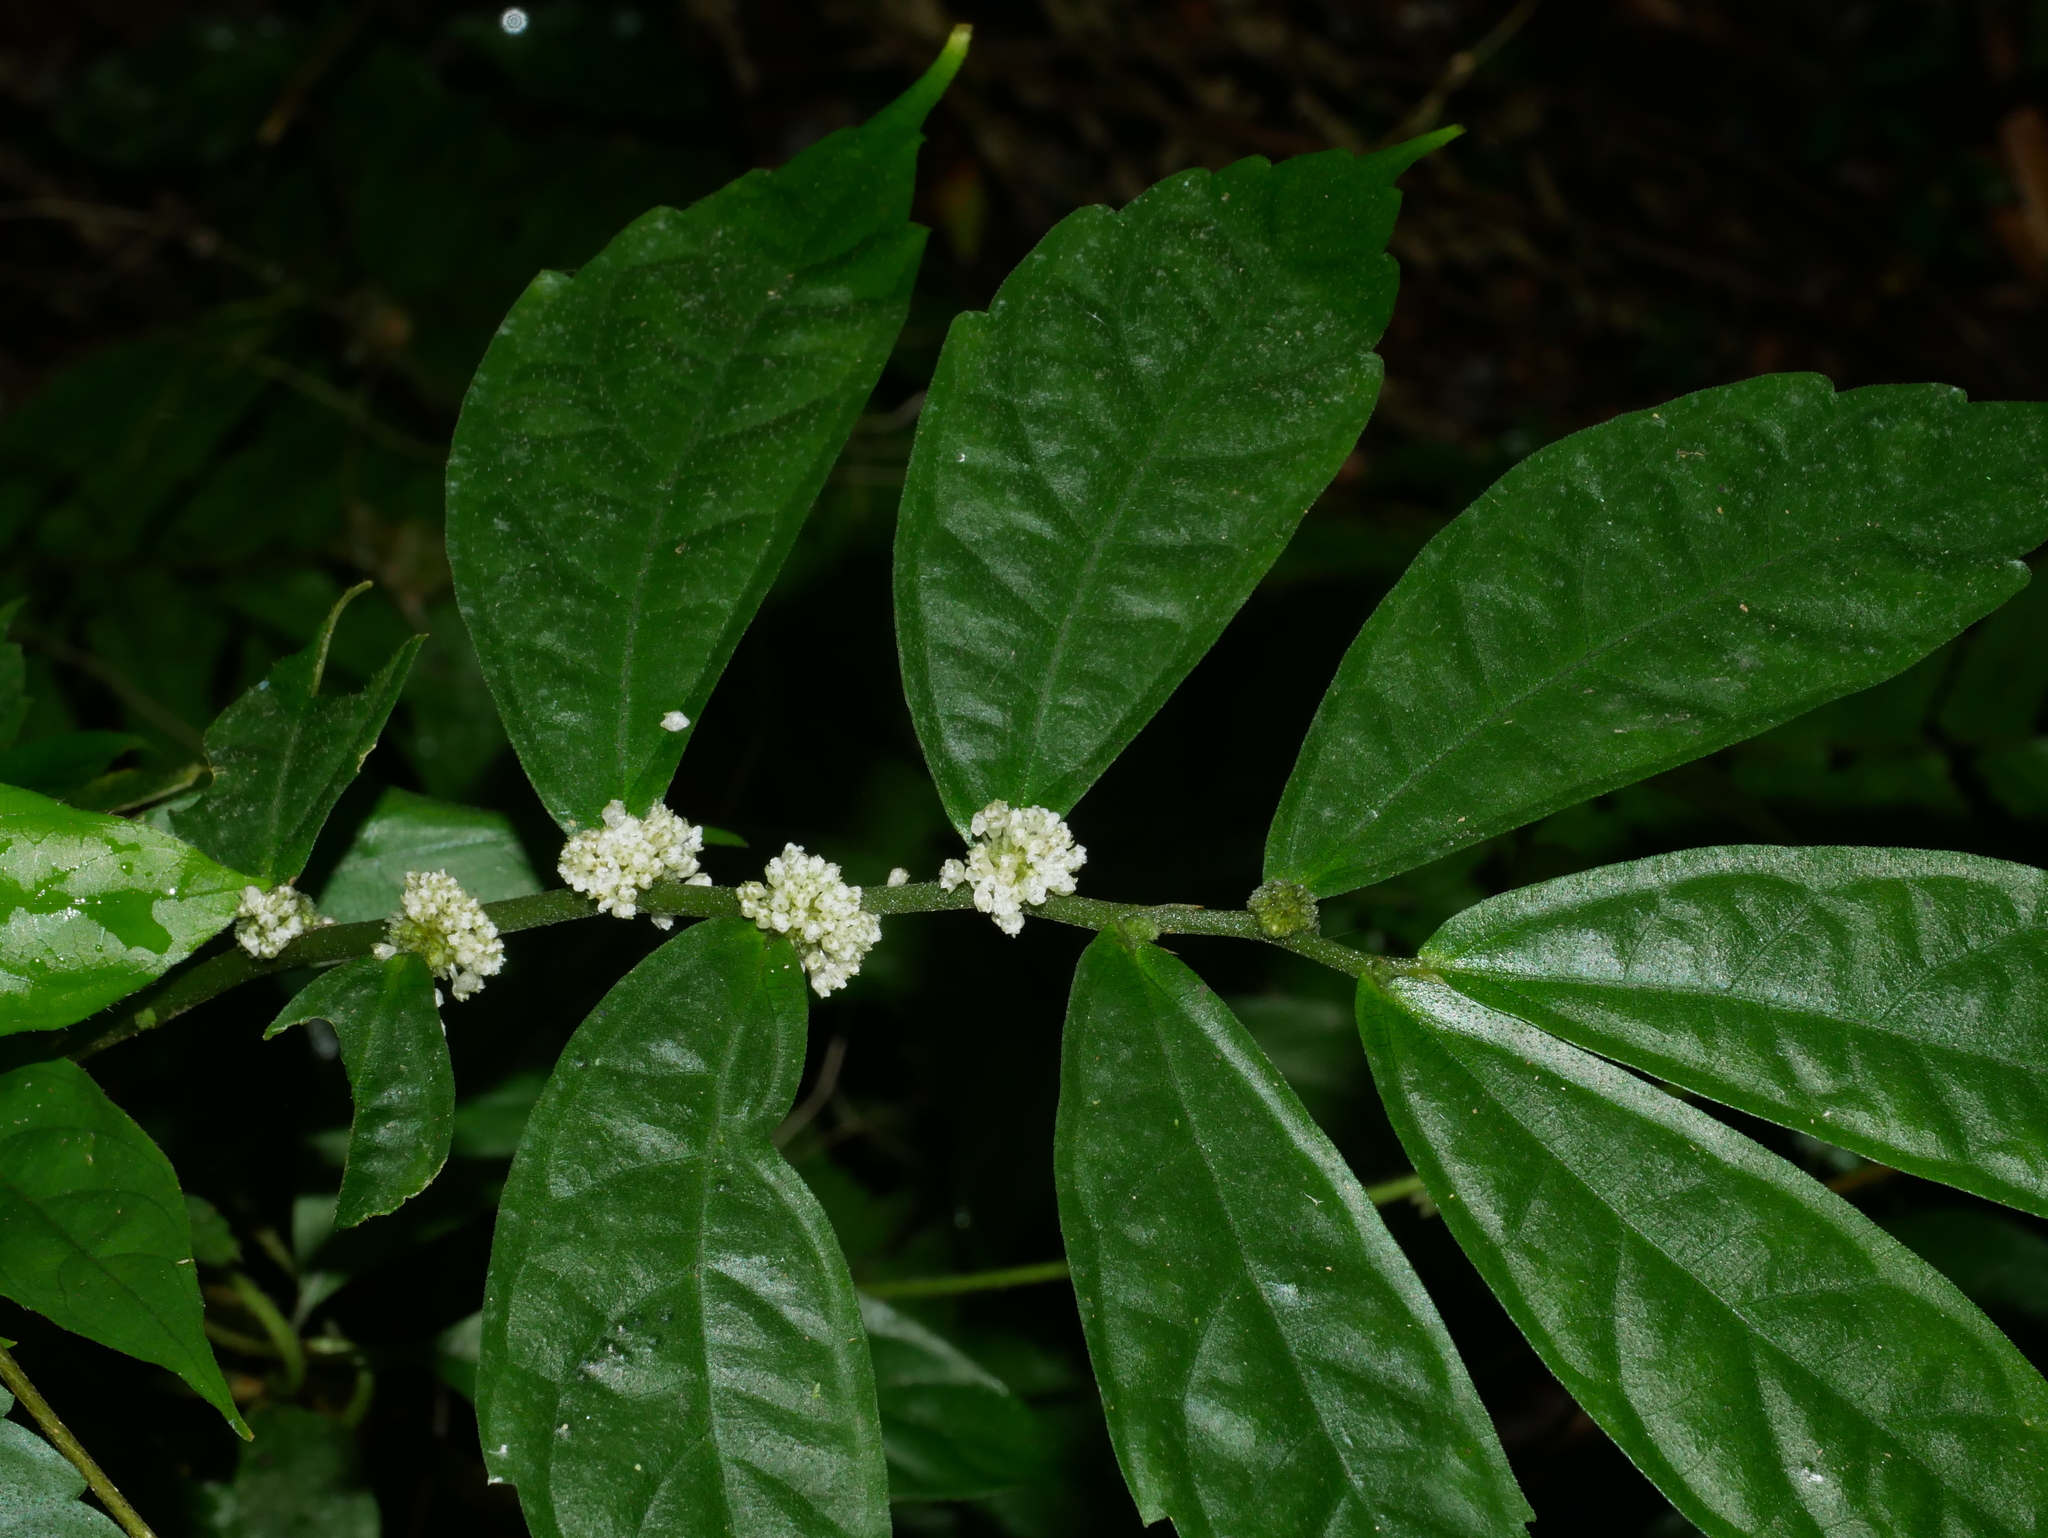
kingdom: Plantae
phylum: Tracheophyta
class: Magnoliopsida
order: Rosales
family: Urticaceae
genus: Elatostema
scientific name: Elatostema lineolatum
